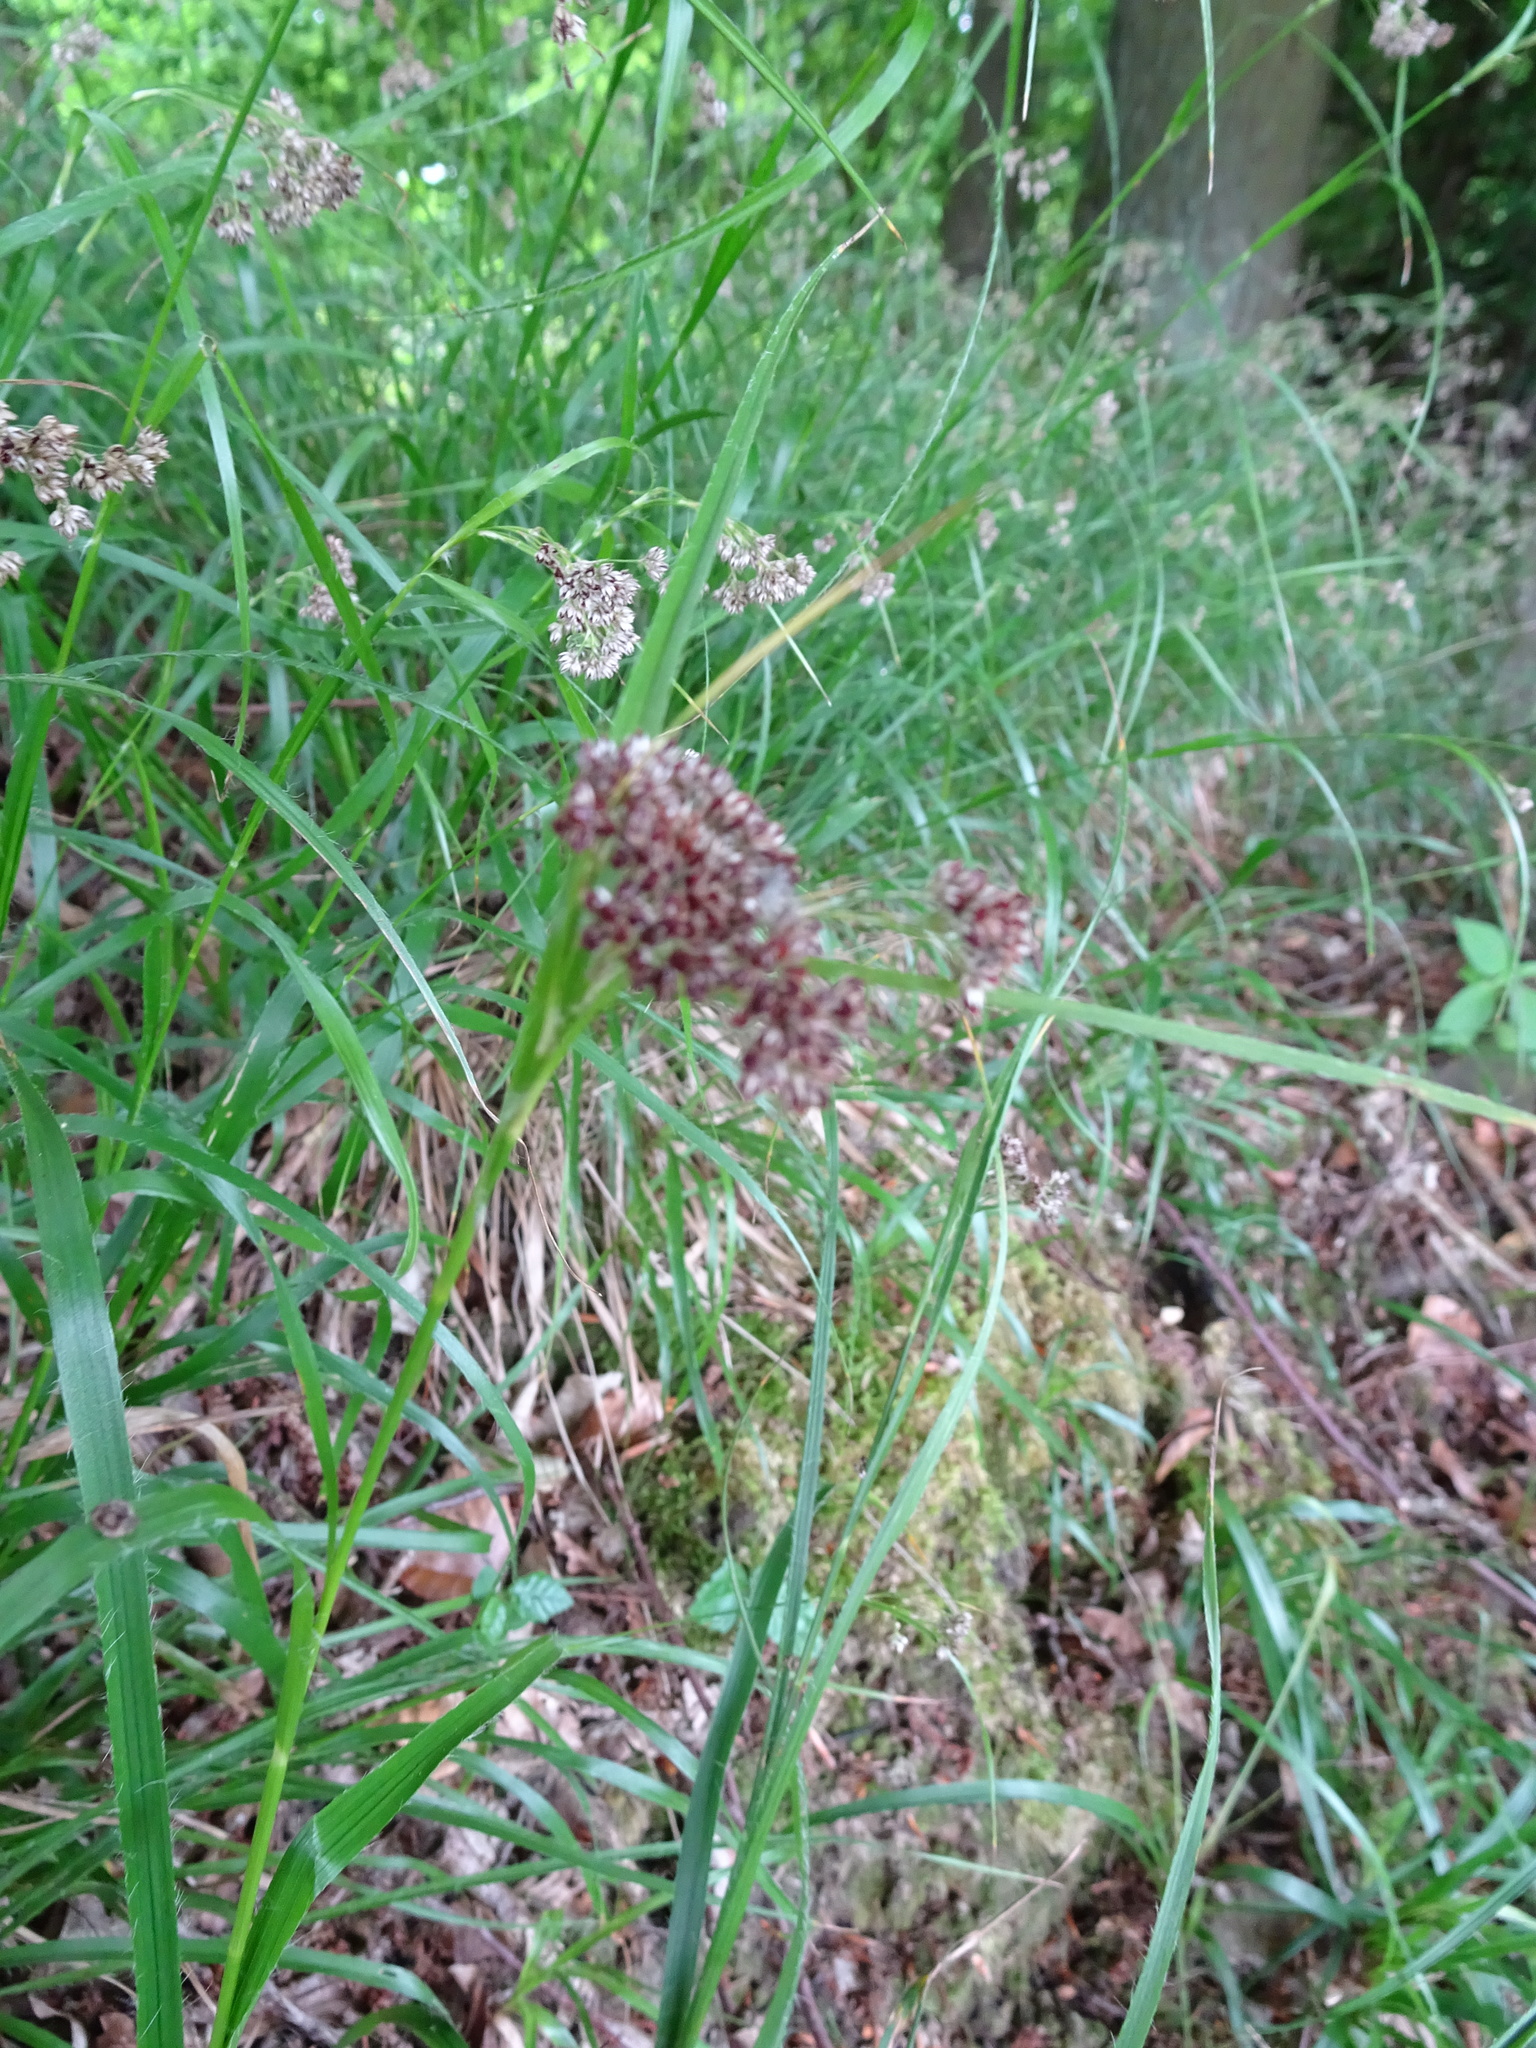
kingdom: Plantae
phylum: Tracheophyta
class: Liliopsida
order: Poales
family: Juncaceae
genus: Luzula
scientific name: Luzula luzuloides
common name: White wood-rush
